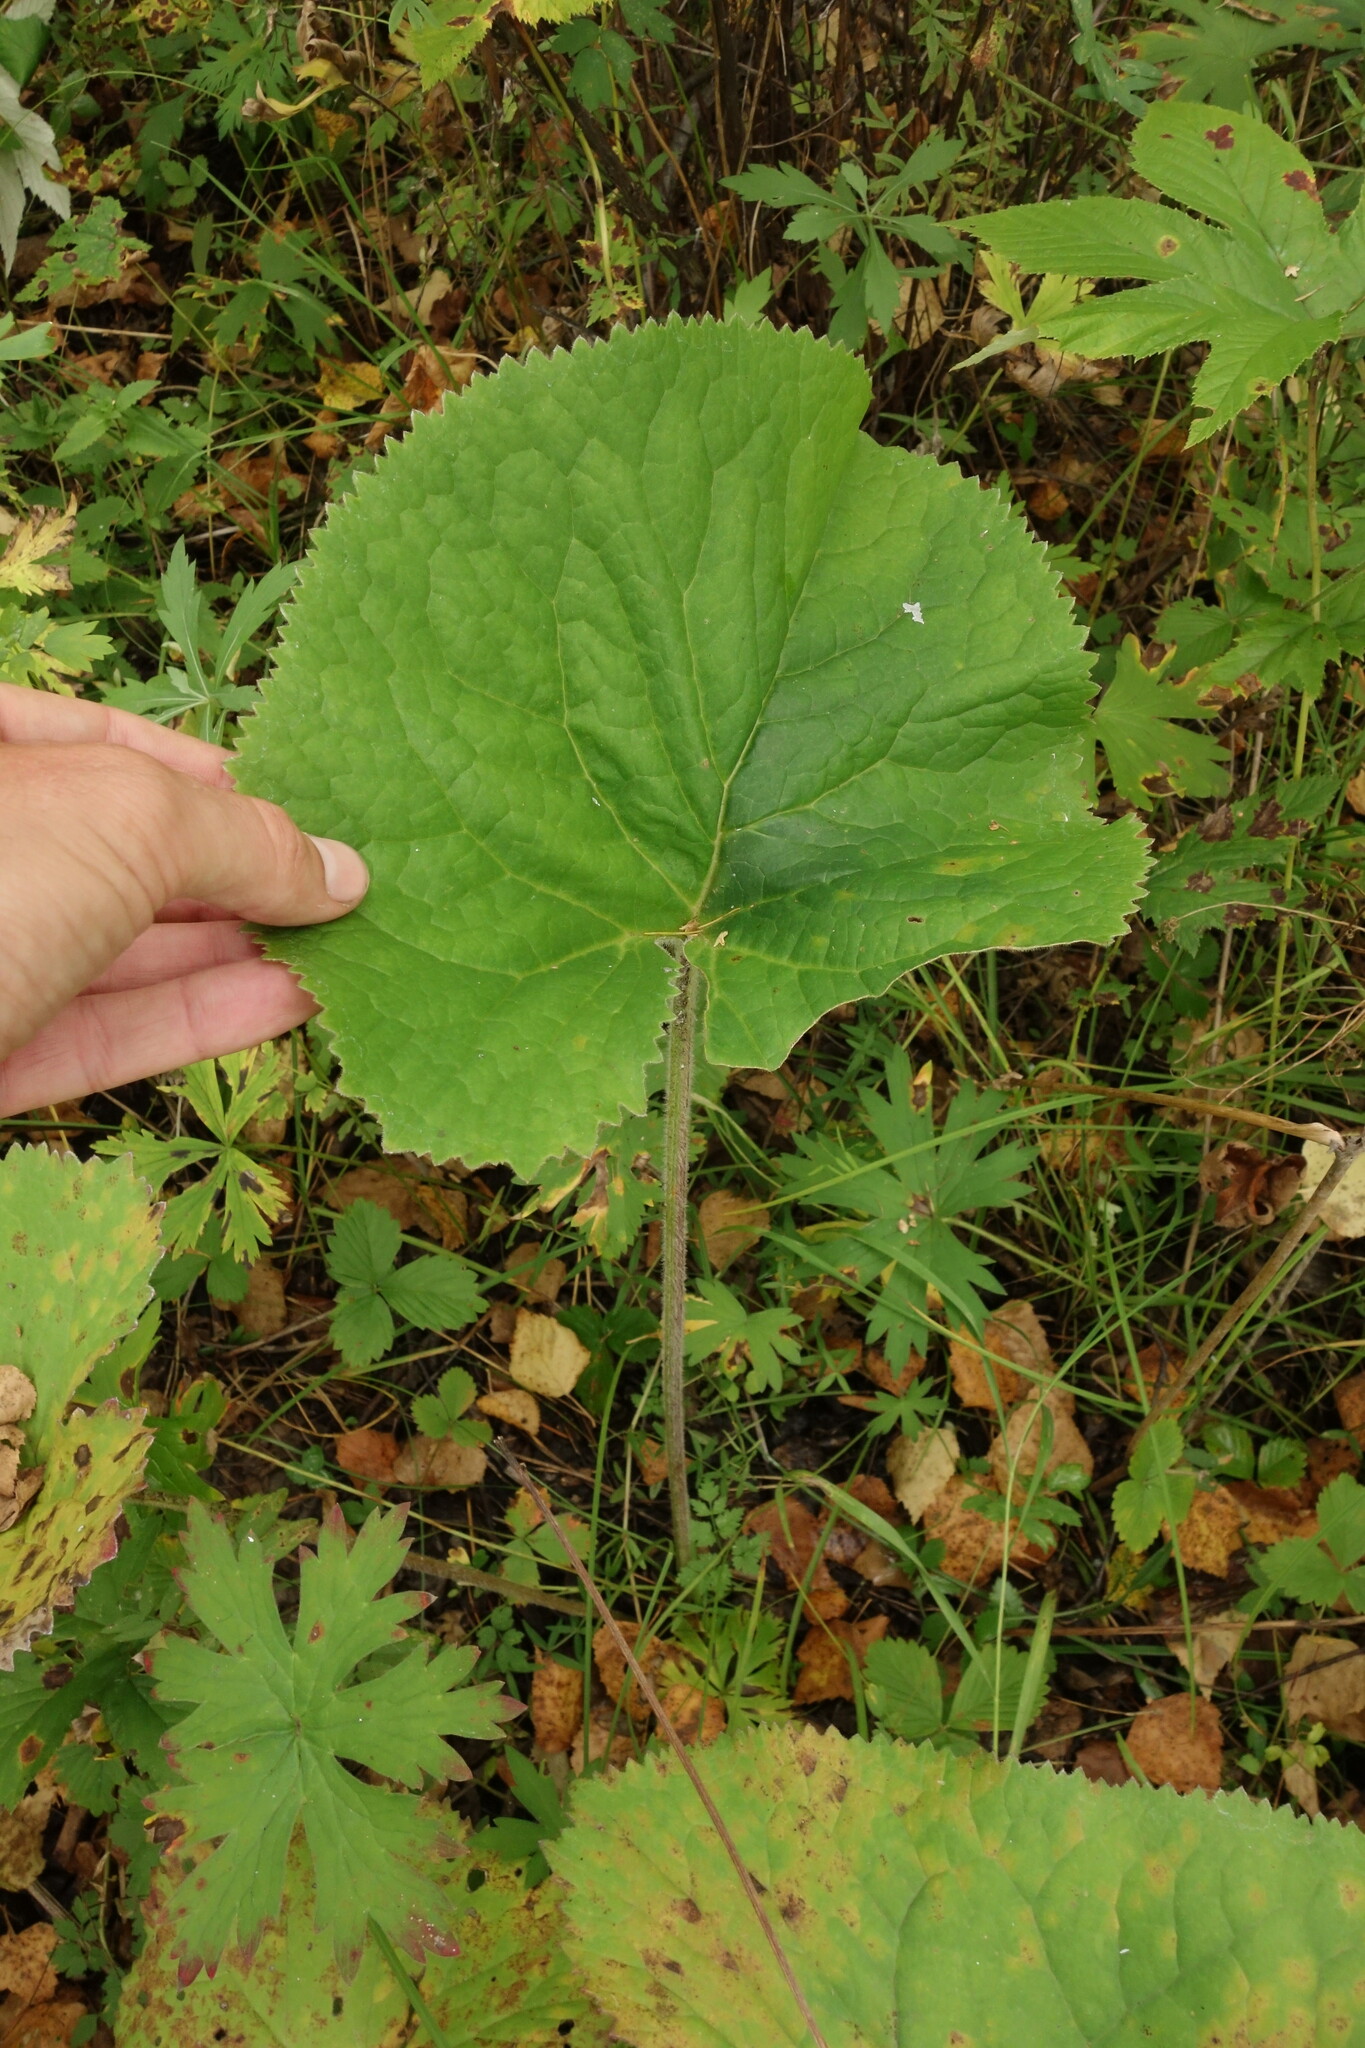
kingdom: Plantae
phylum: Tracheophyta
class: Magnoliopsida
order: Asterales
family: Asteraceae
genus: Ligularia
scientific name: Ligularia fischeri
